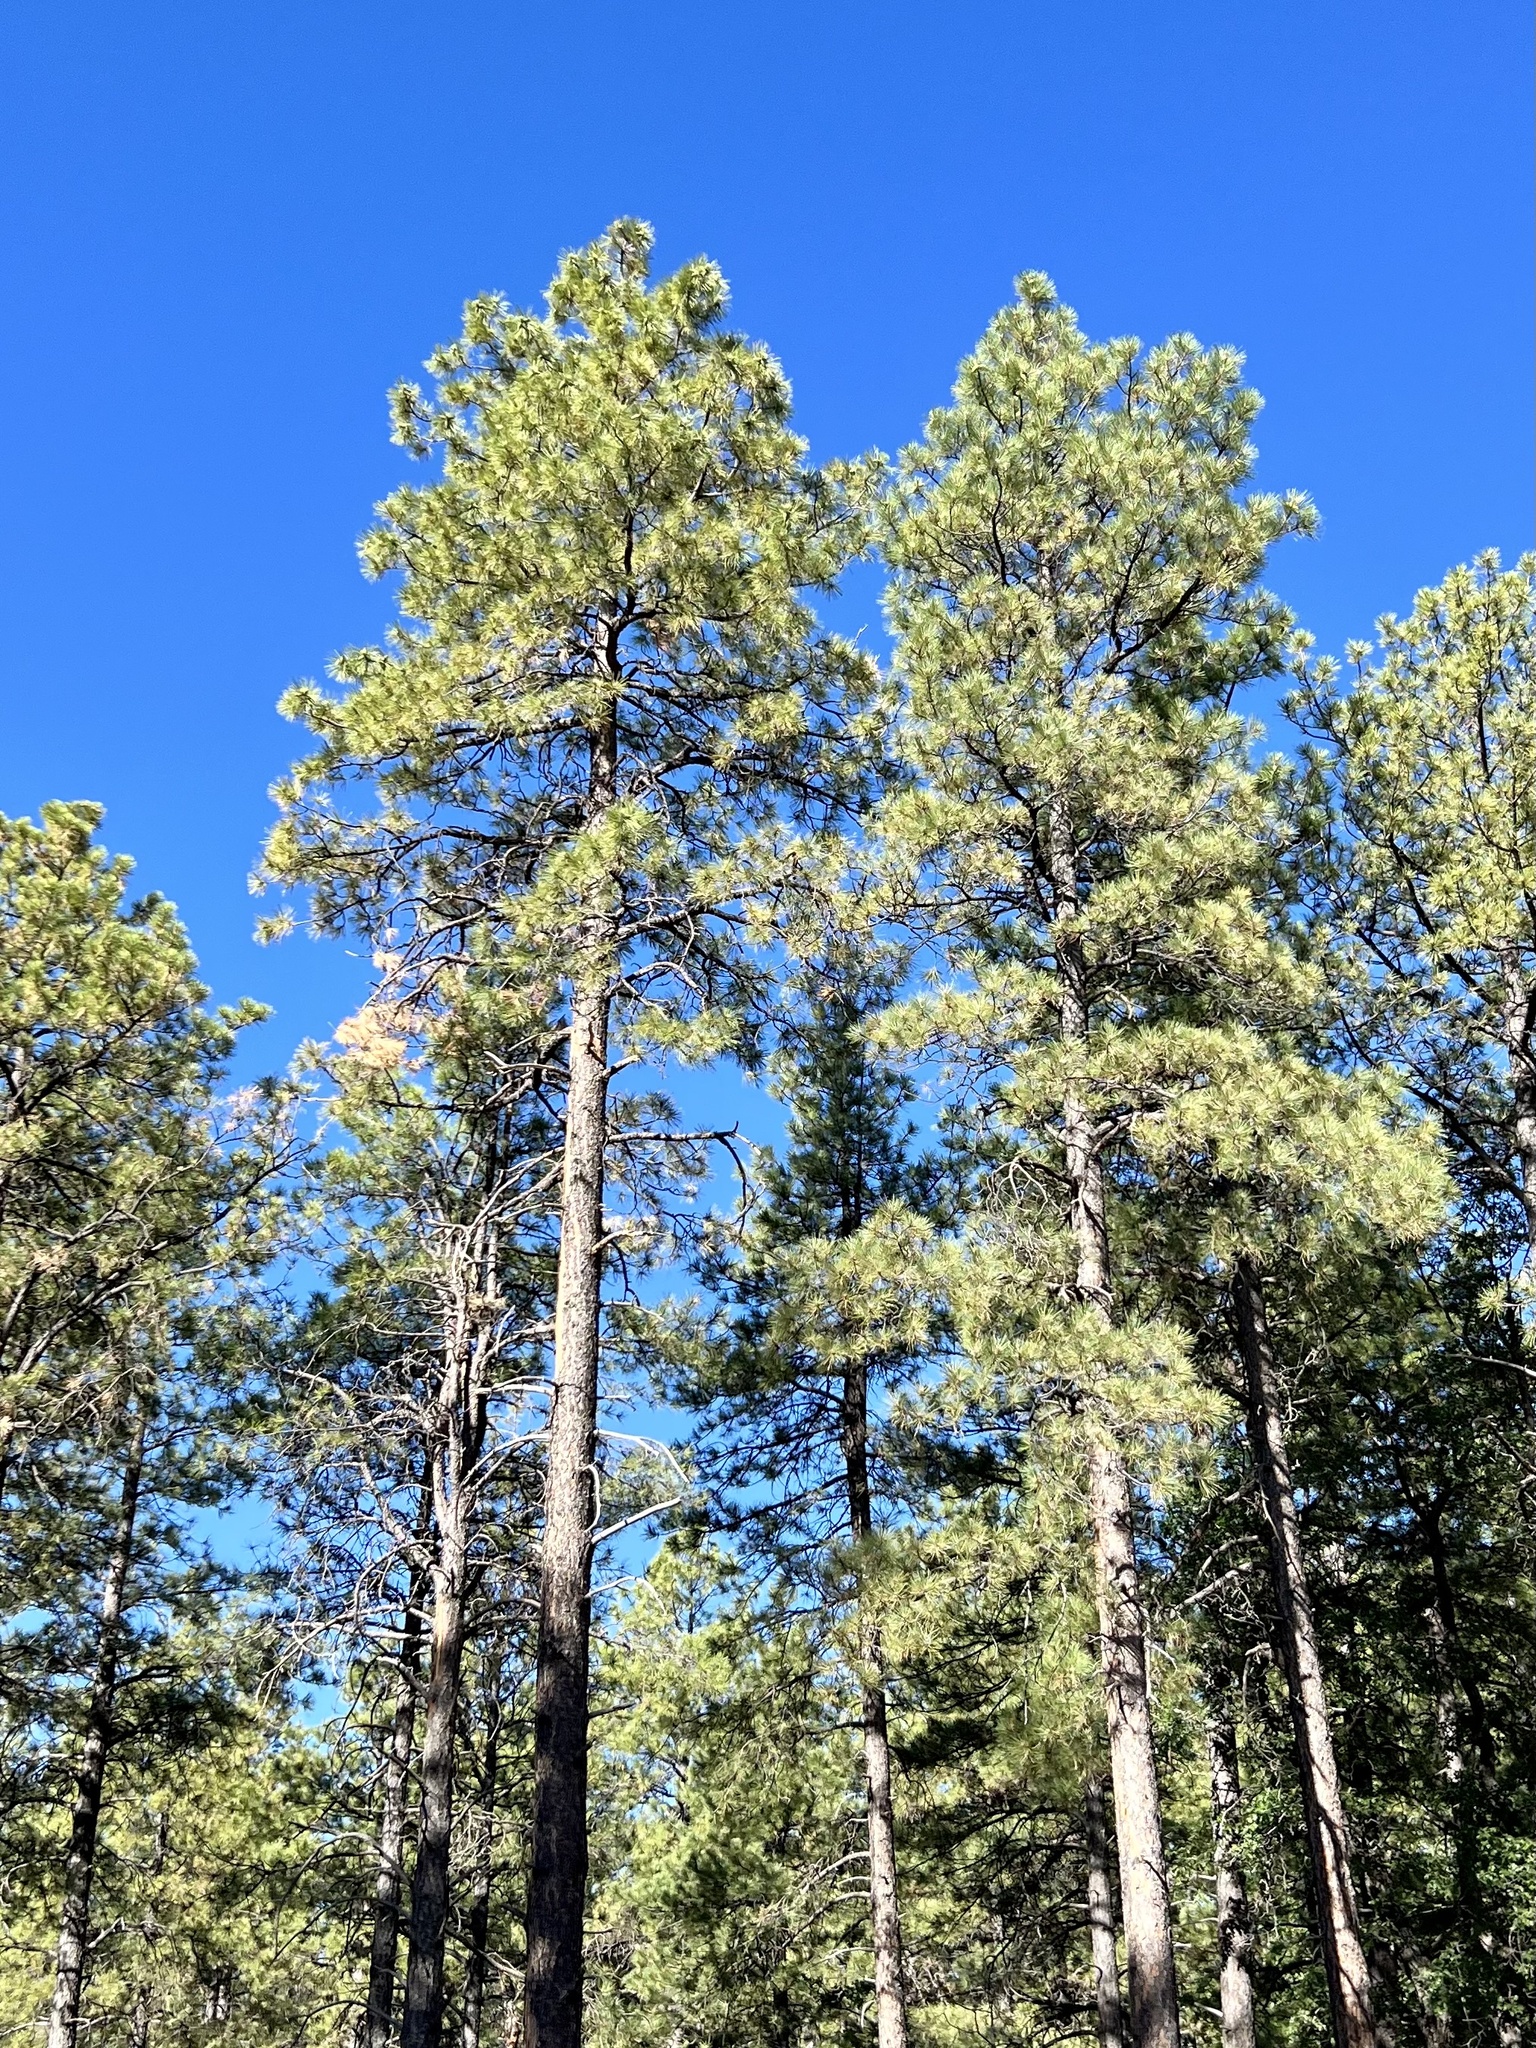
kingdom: Plantae
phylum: Tracheophyta
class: Pinopsida
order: Pinales
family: Pinaceae
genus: Pinus
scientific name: Pinus ponderosa
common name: Western yellow-pine
